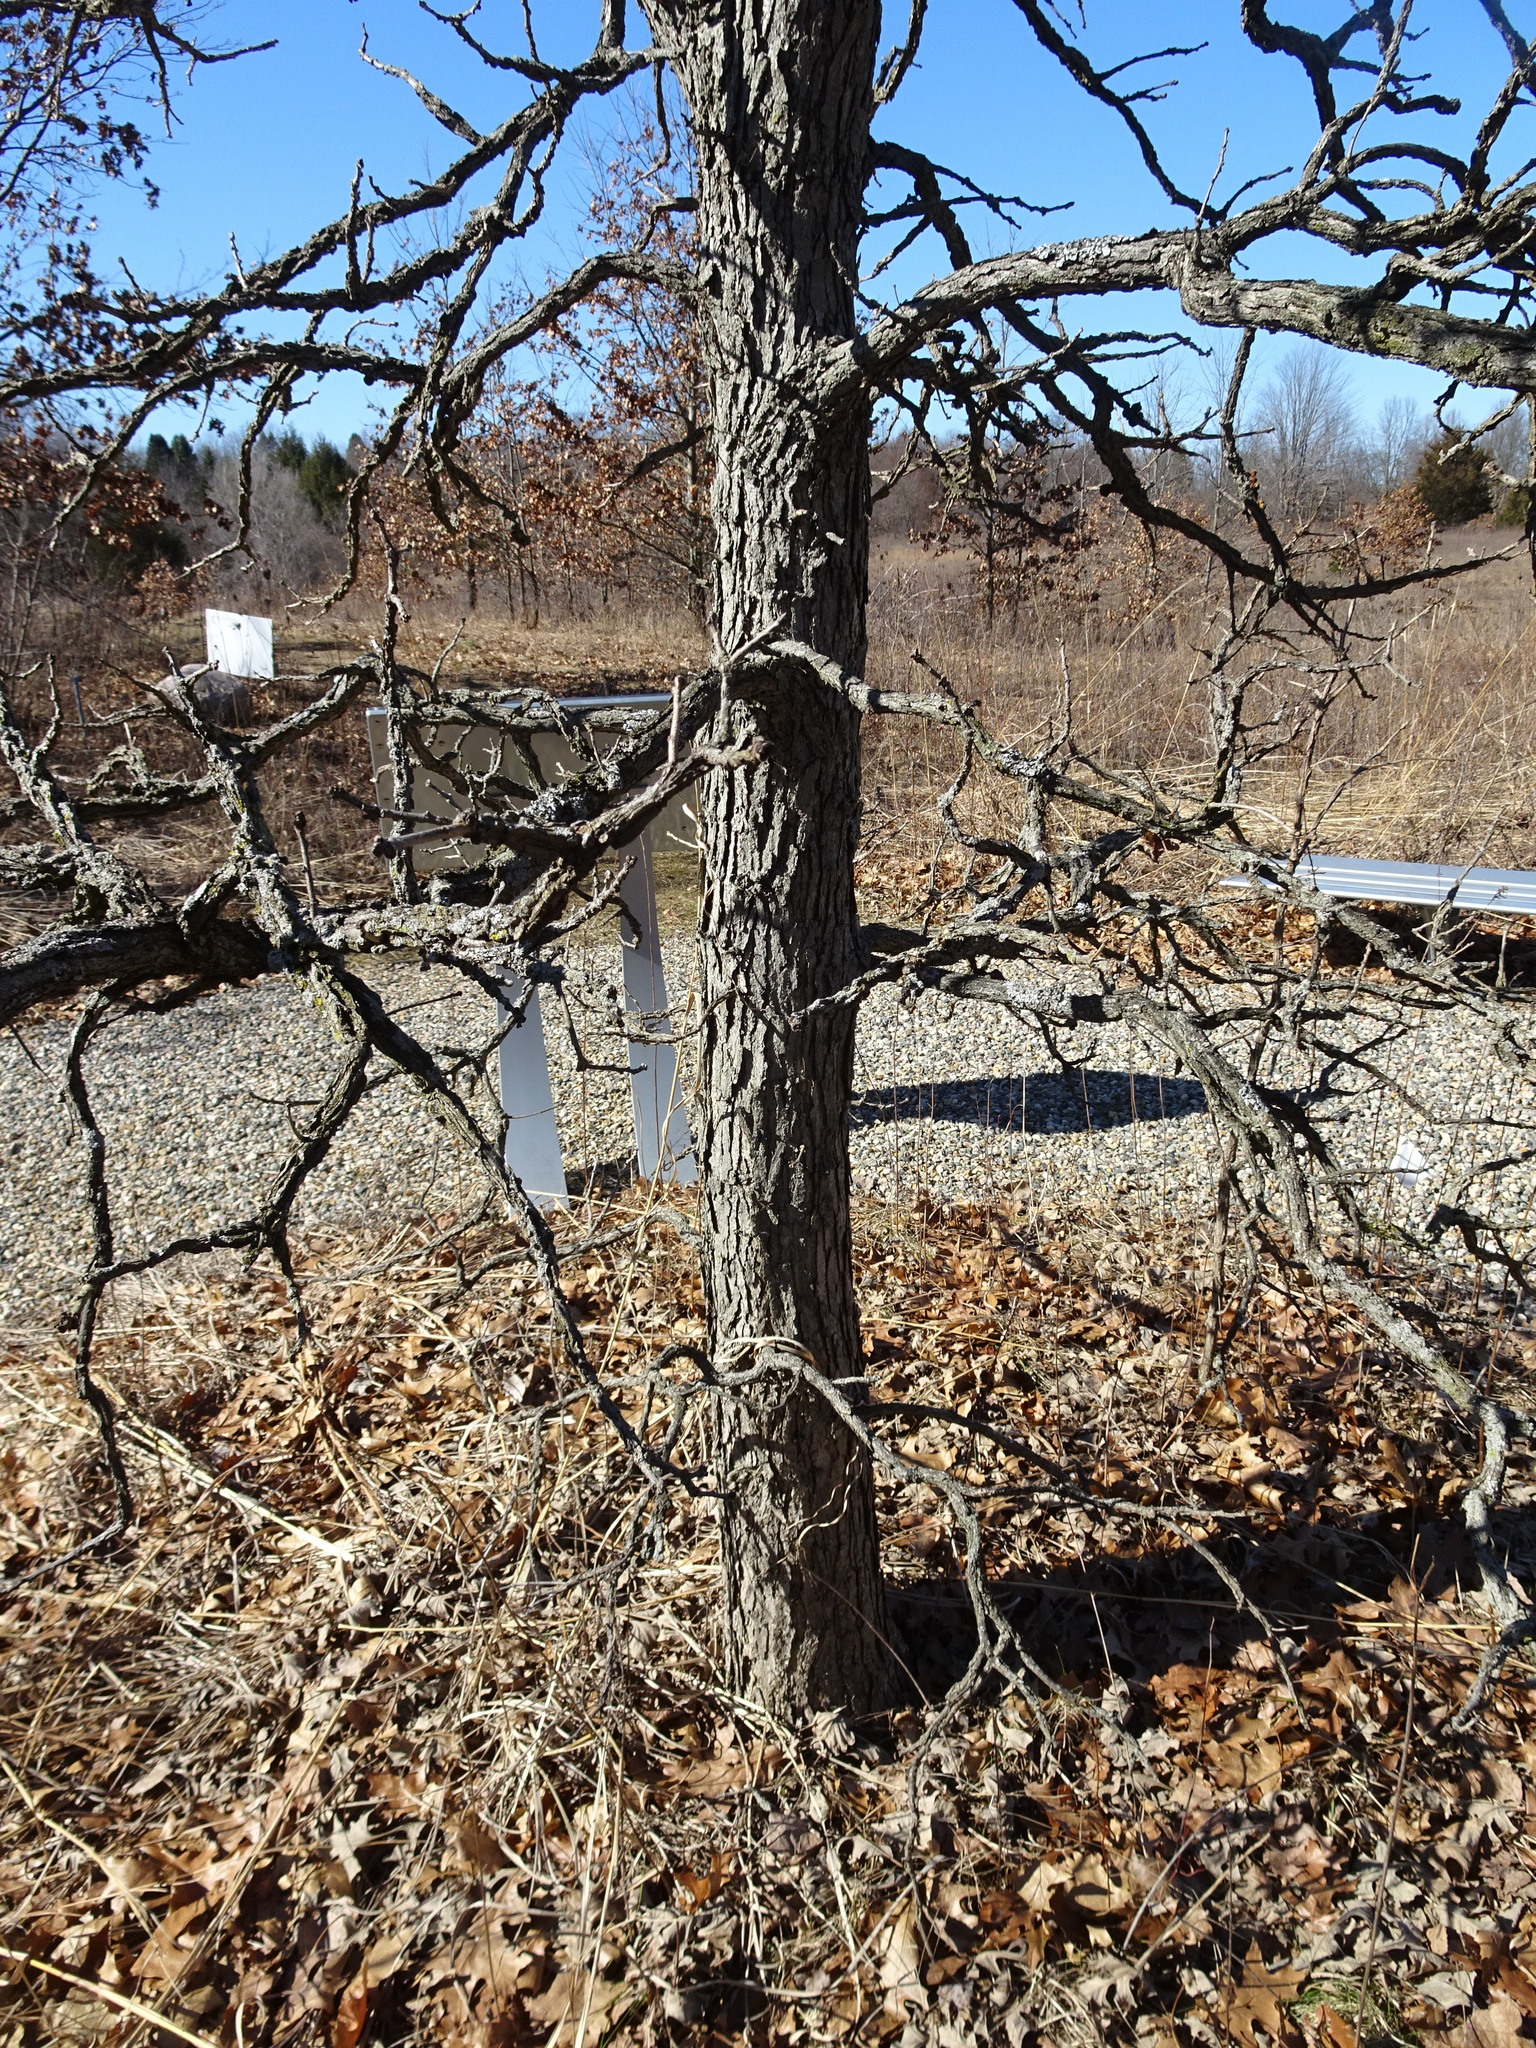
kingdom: Plantae
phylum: Tracheophyta
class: Magnoliopsida
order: Fagales
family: Fagaceae
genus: Quercus
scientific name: Quercus macrocarpa
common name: Bur oak
